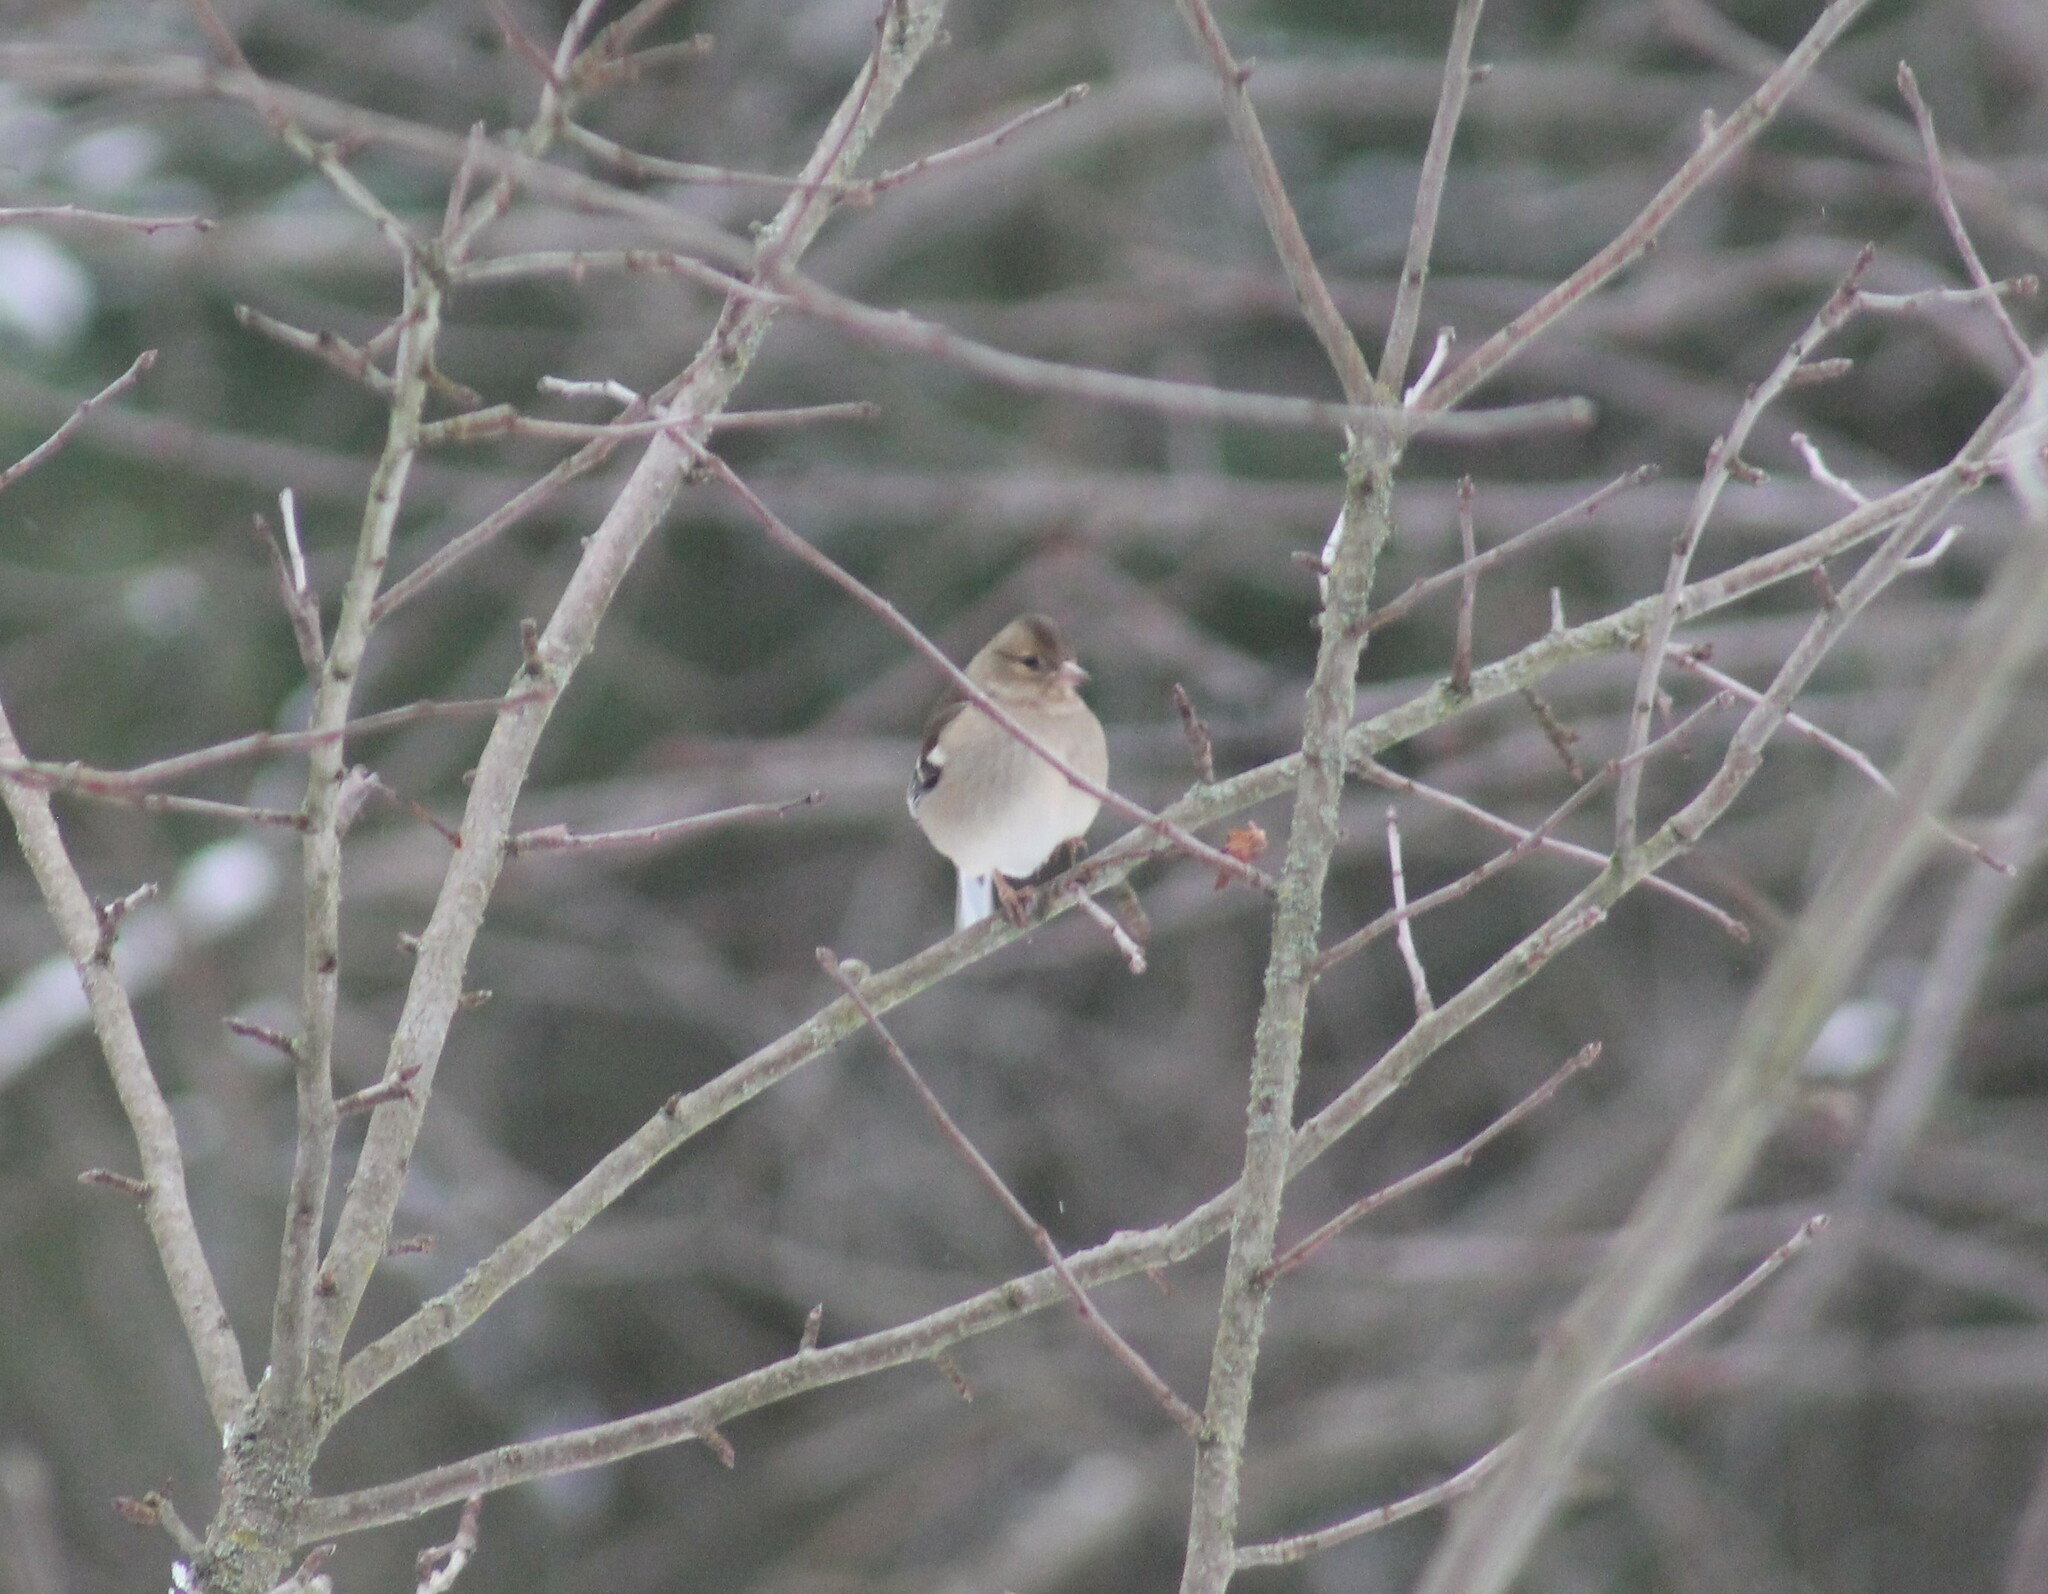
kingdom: Animalia
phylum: Chordata
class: Aves
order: Passeriformes
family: Fringillidae
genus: Fringilla
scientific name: Fringilla coelebs
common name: Common chaffinch
